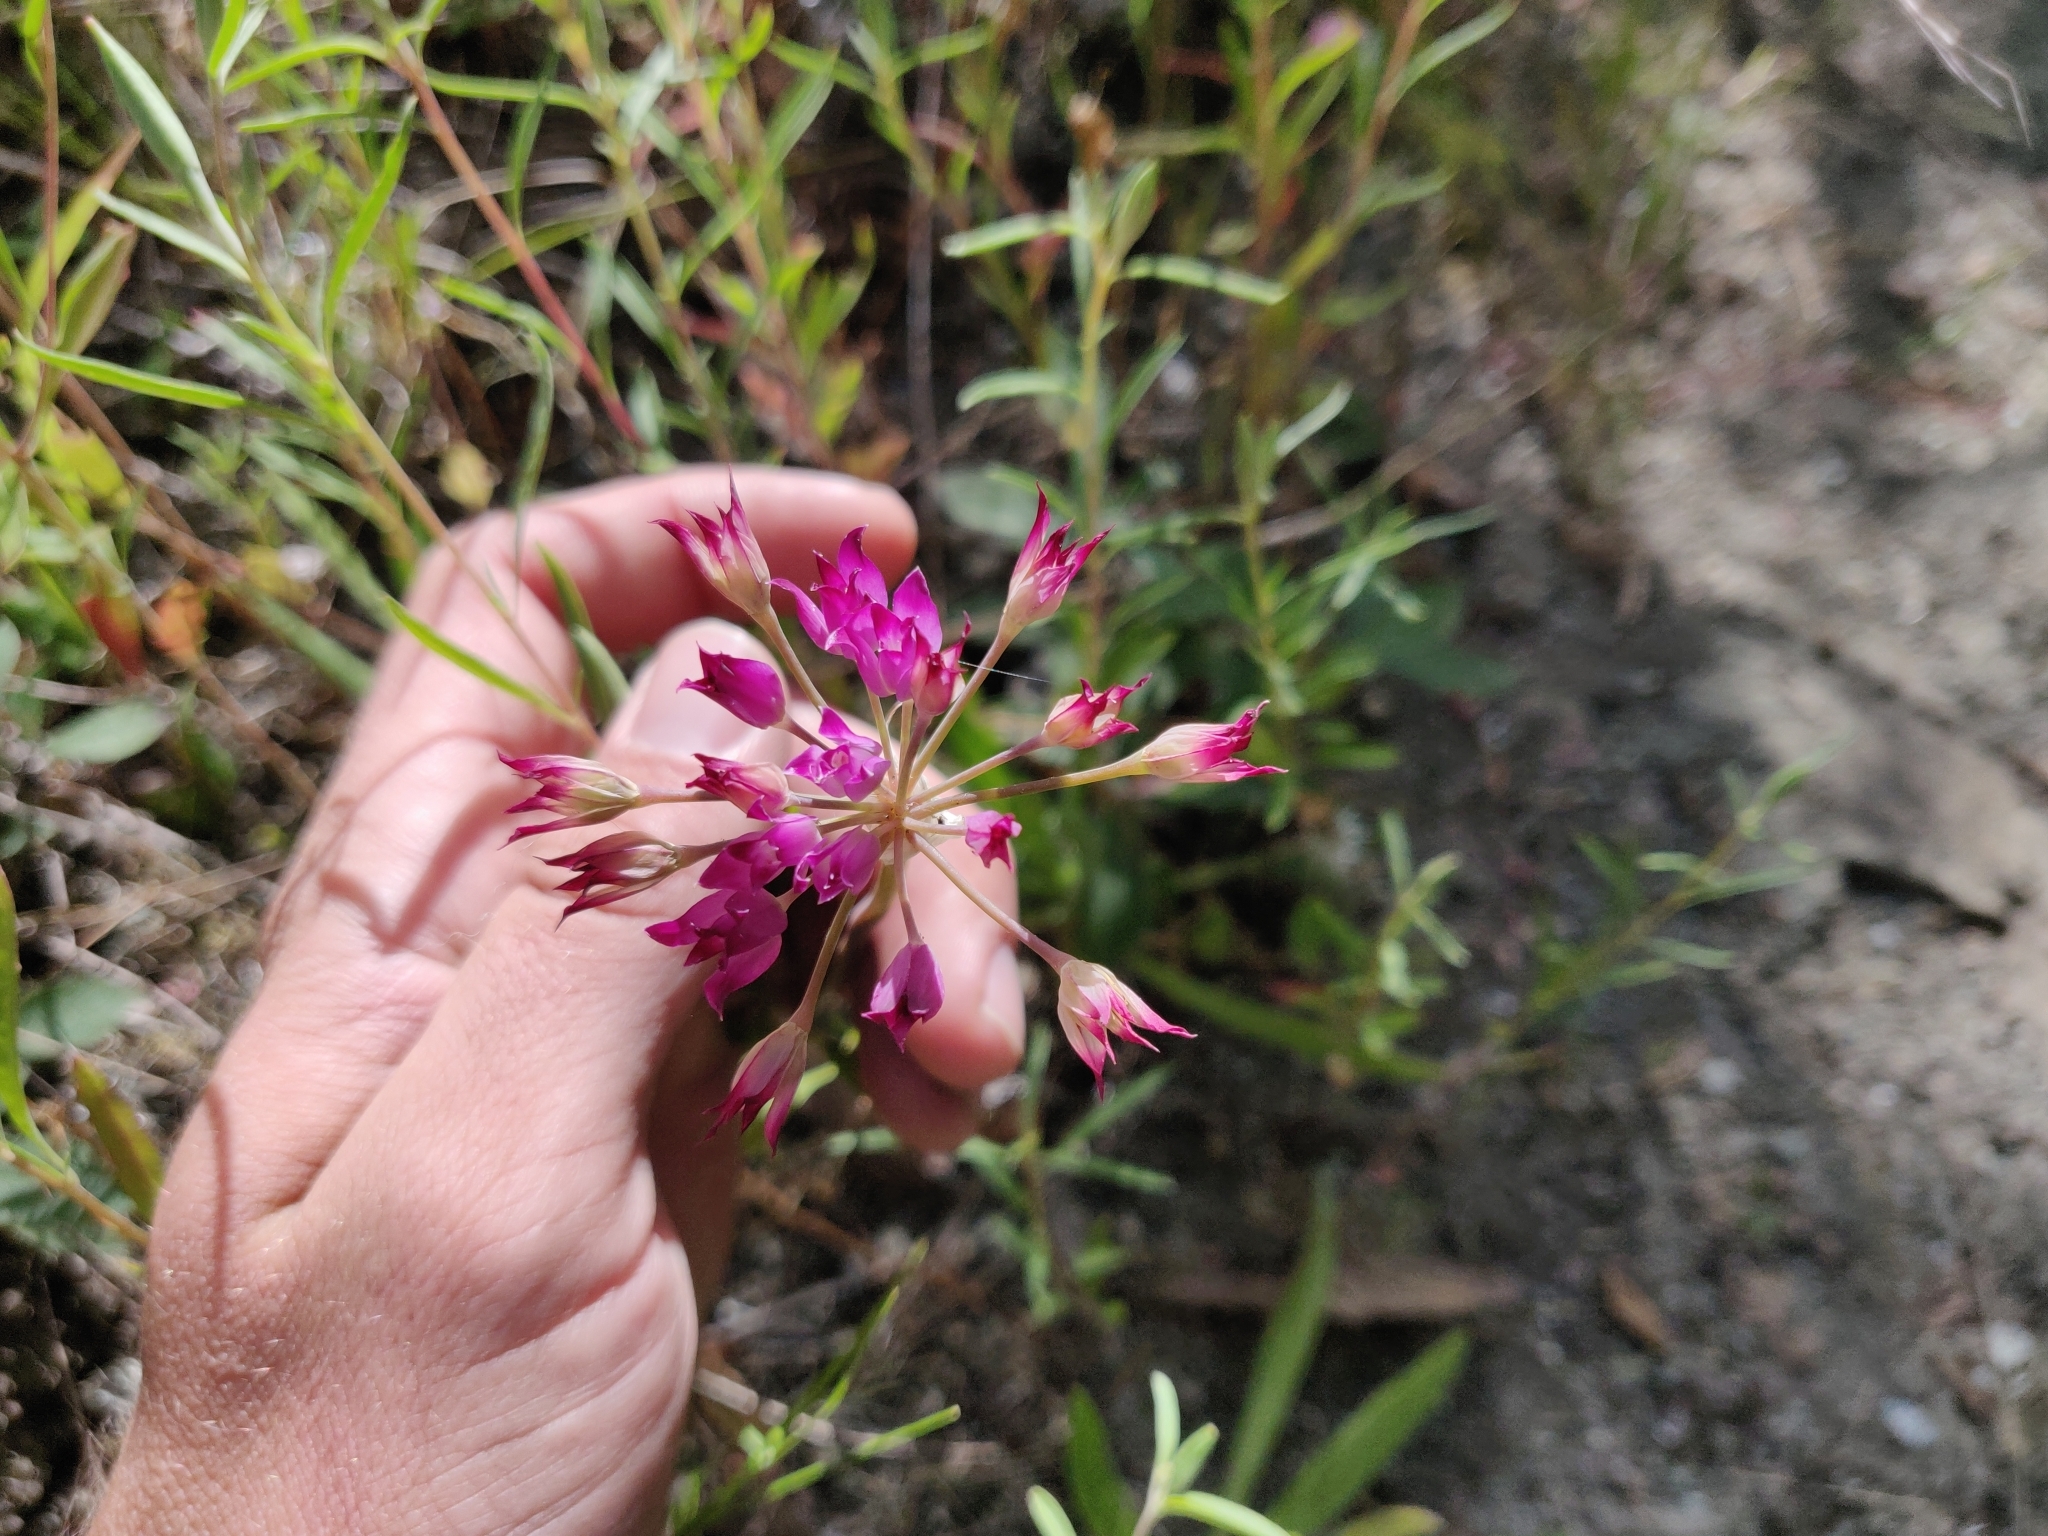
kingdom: Plantae
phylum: Tracheophyta
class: Liliopsida
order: Asparagales
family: Amaryllidaceae
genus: Allium
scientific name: Allium peninsulare
